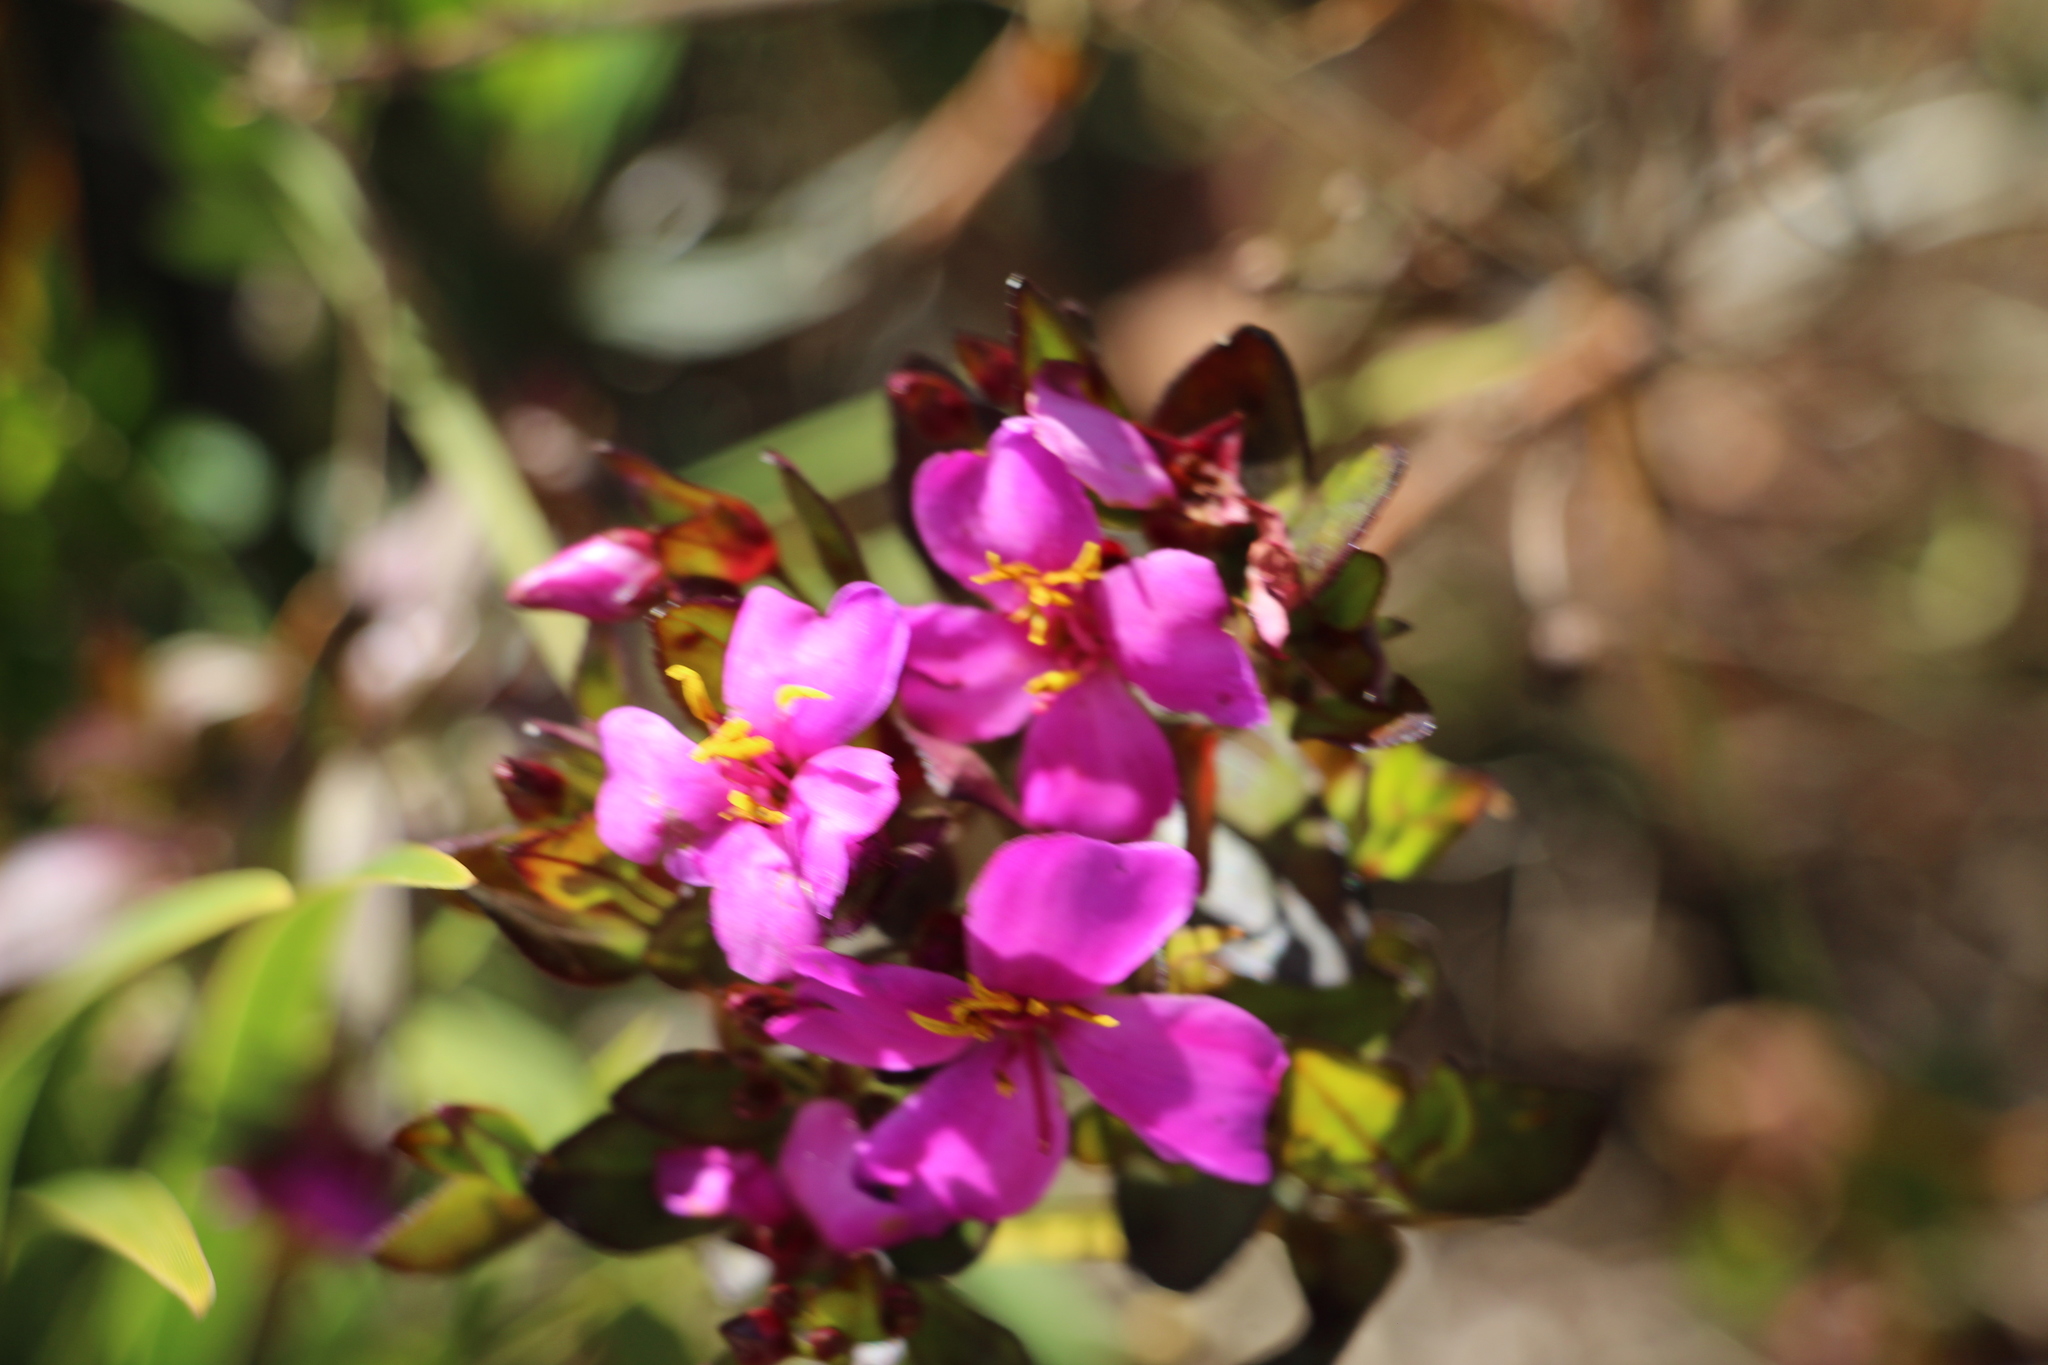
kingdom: Plantae
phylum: Tracheophyta
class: Magnoliopsida
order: Myrtales
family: Melastomataceae
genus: Bucquetia
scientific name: Bucquetia glutinosa
